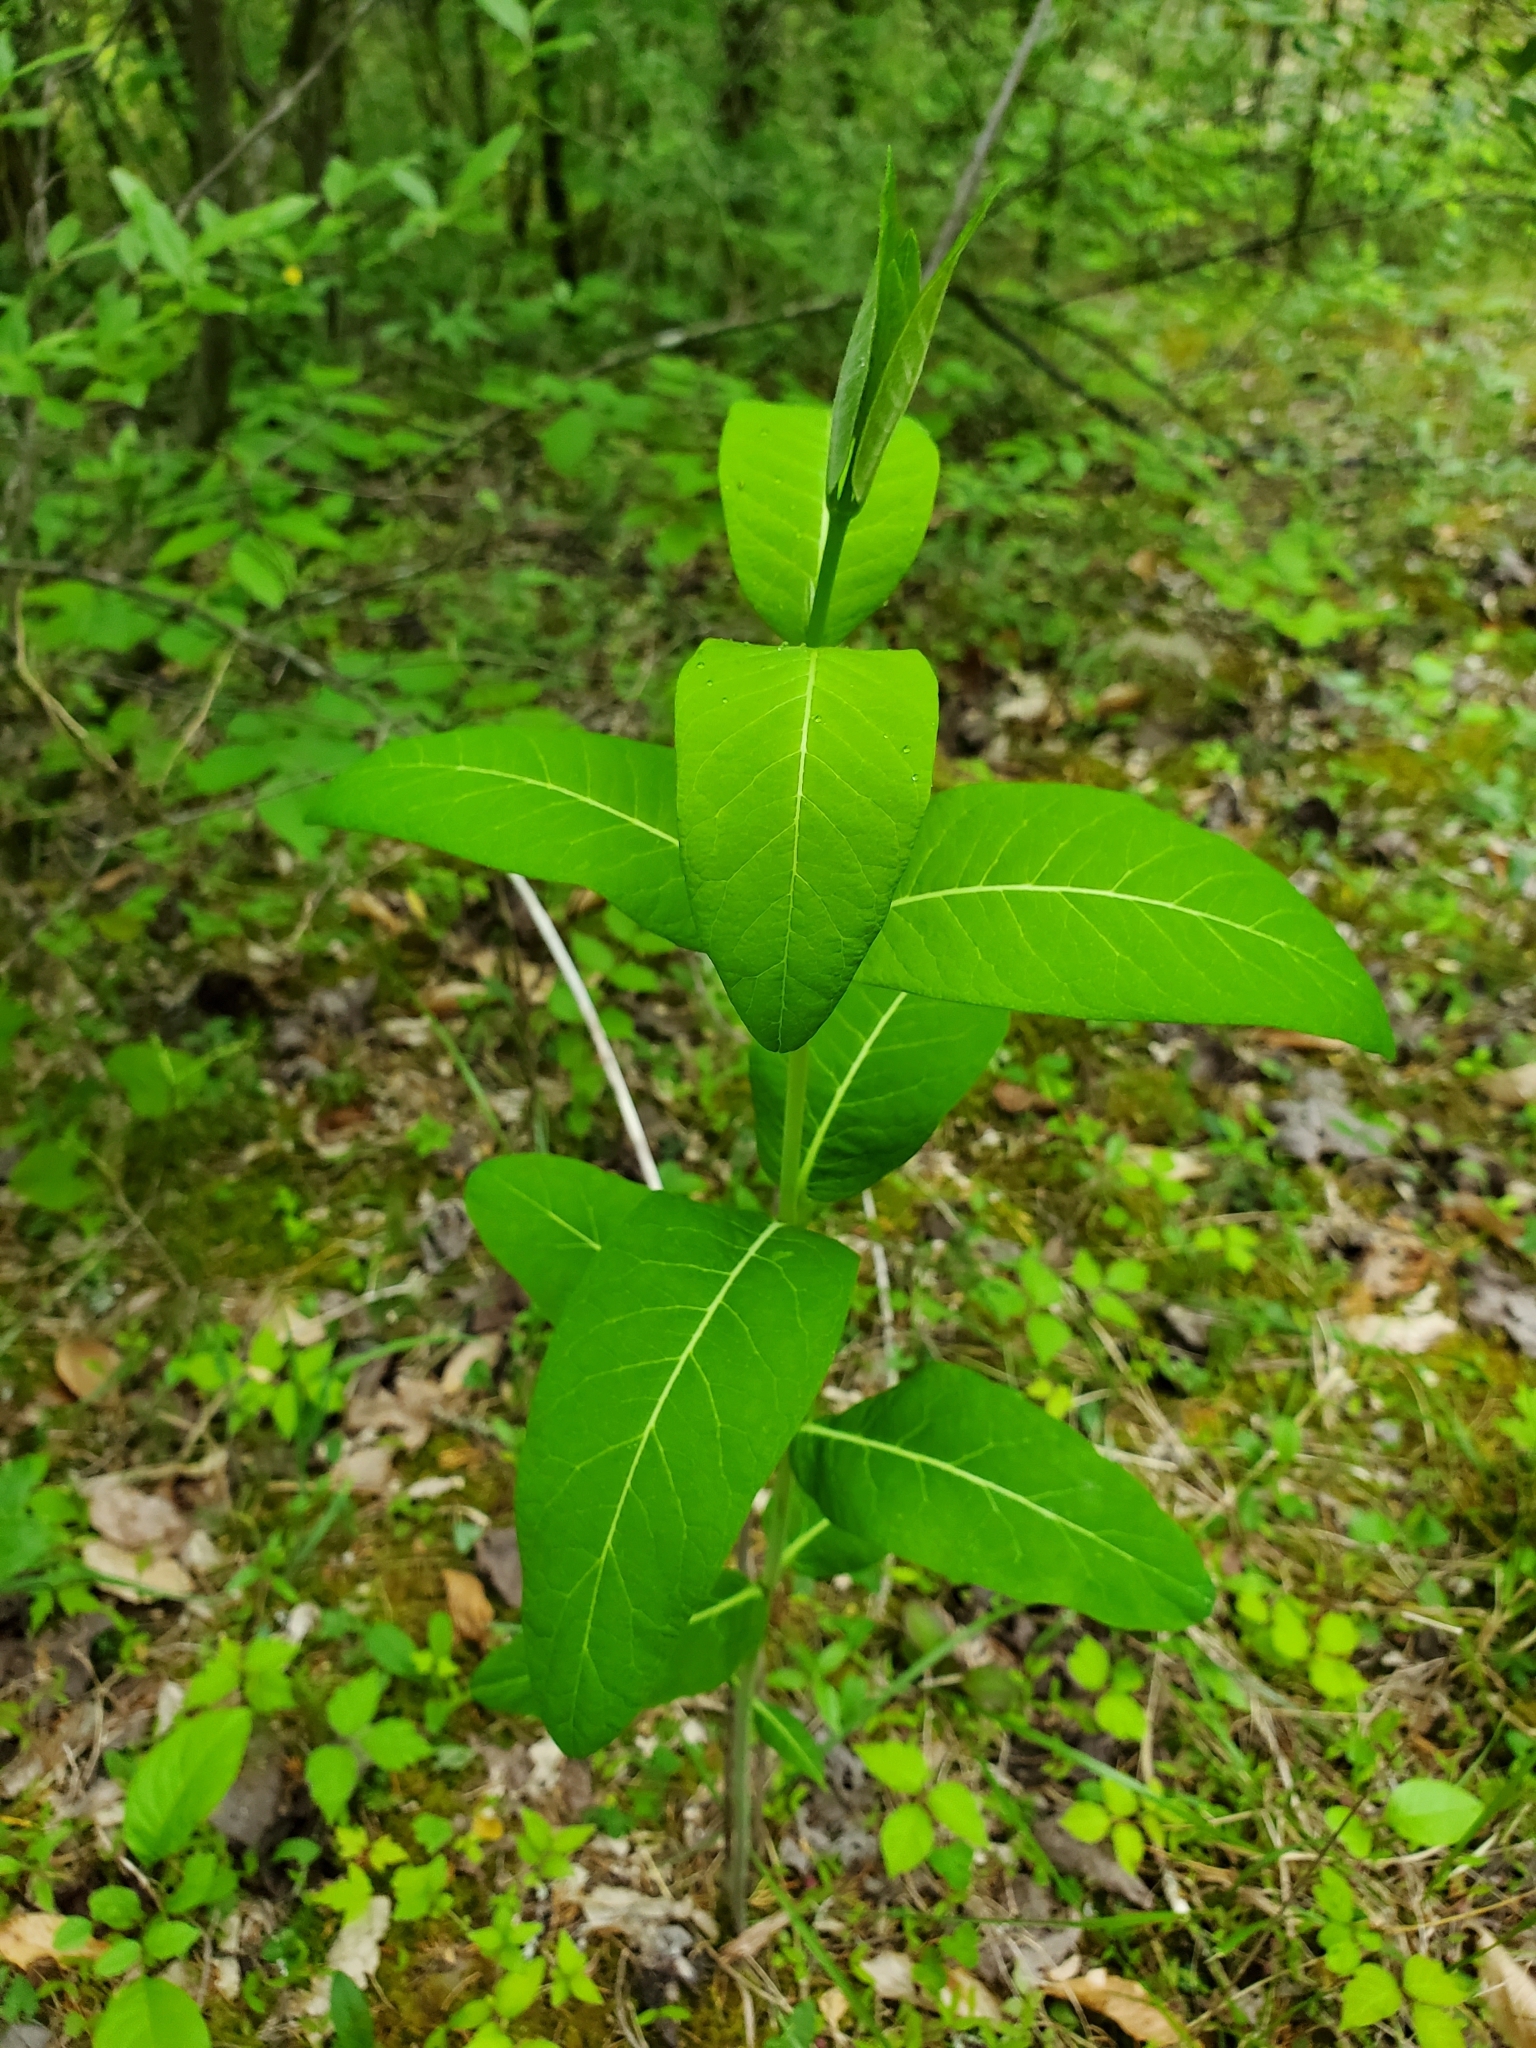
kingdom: Plantae
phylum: Tracheophyta
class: Magnoliopsida
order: Gentianales
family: Apocynaceae
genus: Apocynum
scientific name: Apocynum cannabinum
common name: Hemp dogbane
